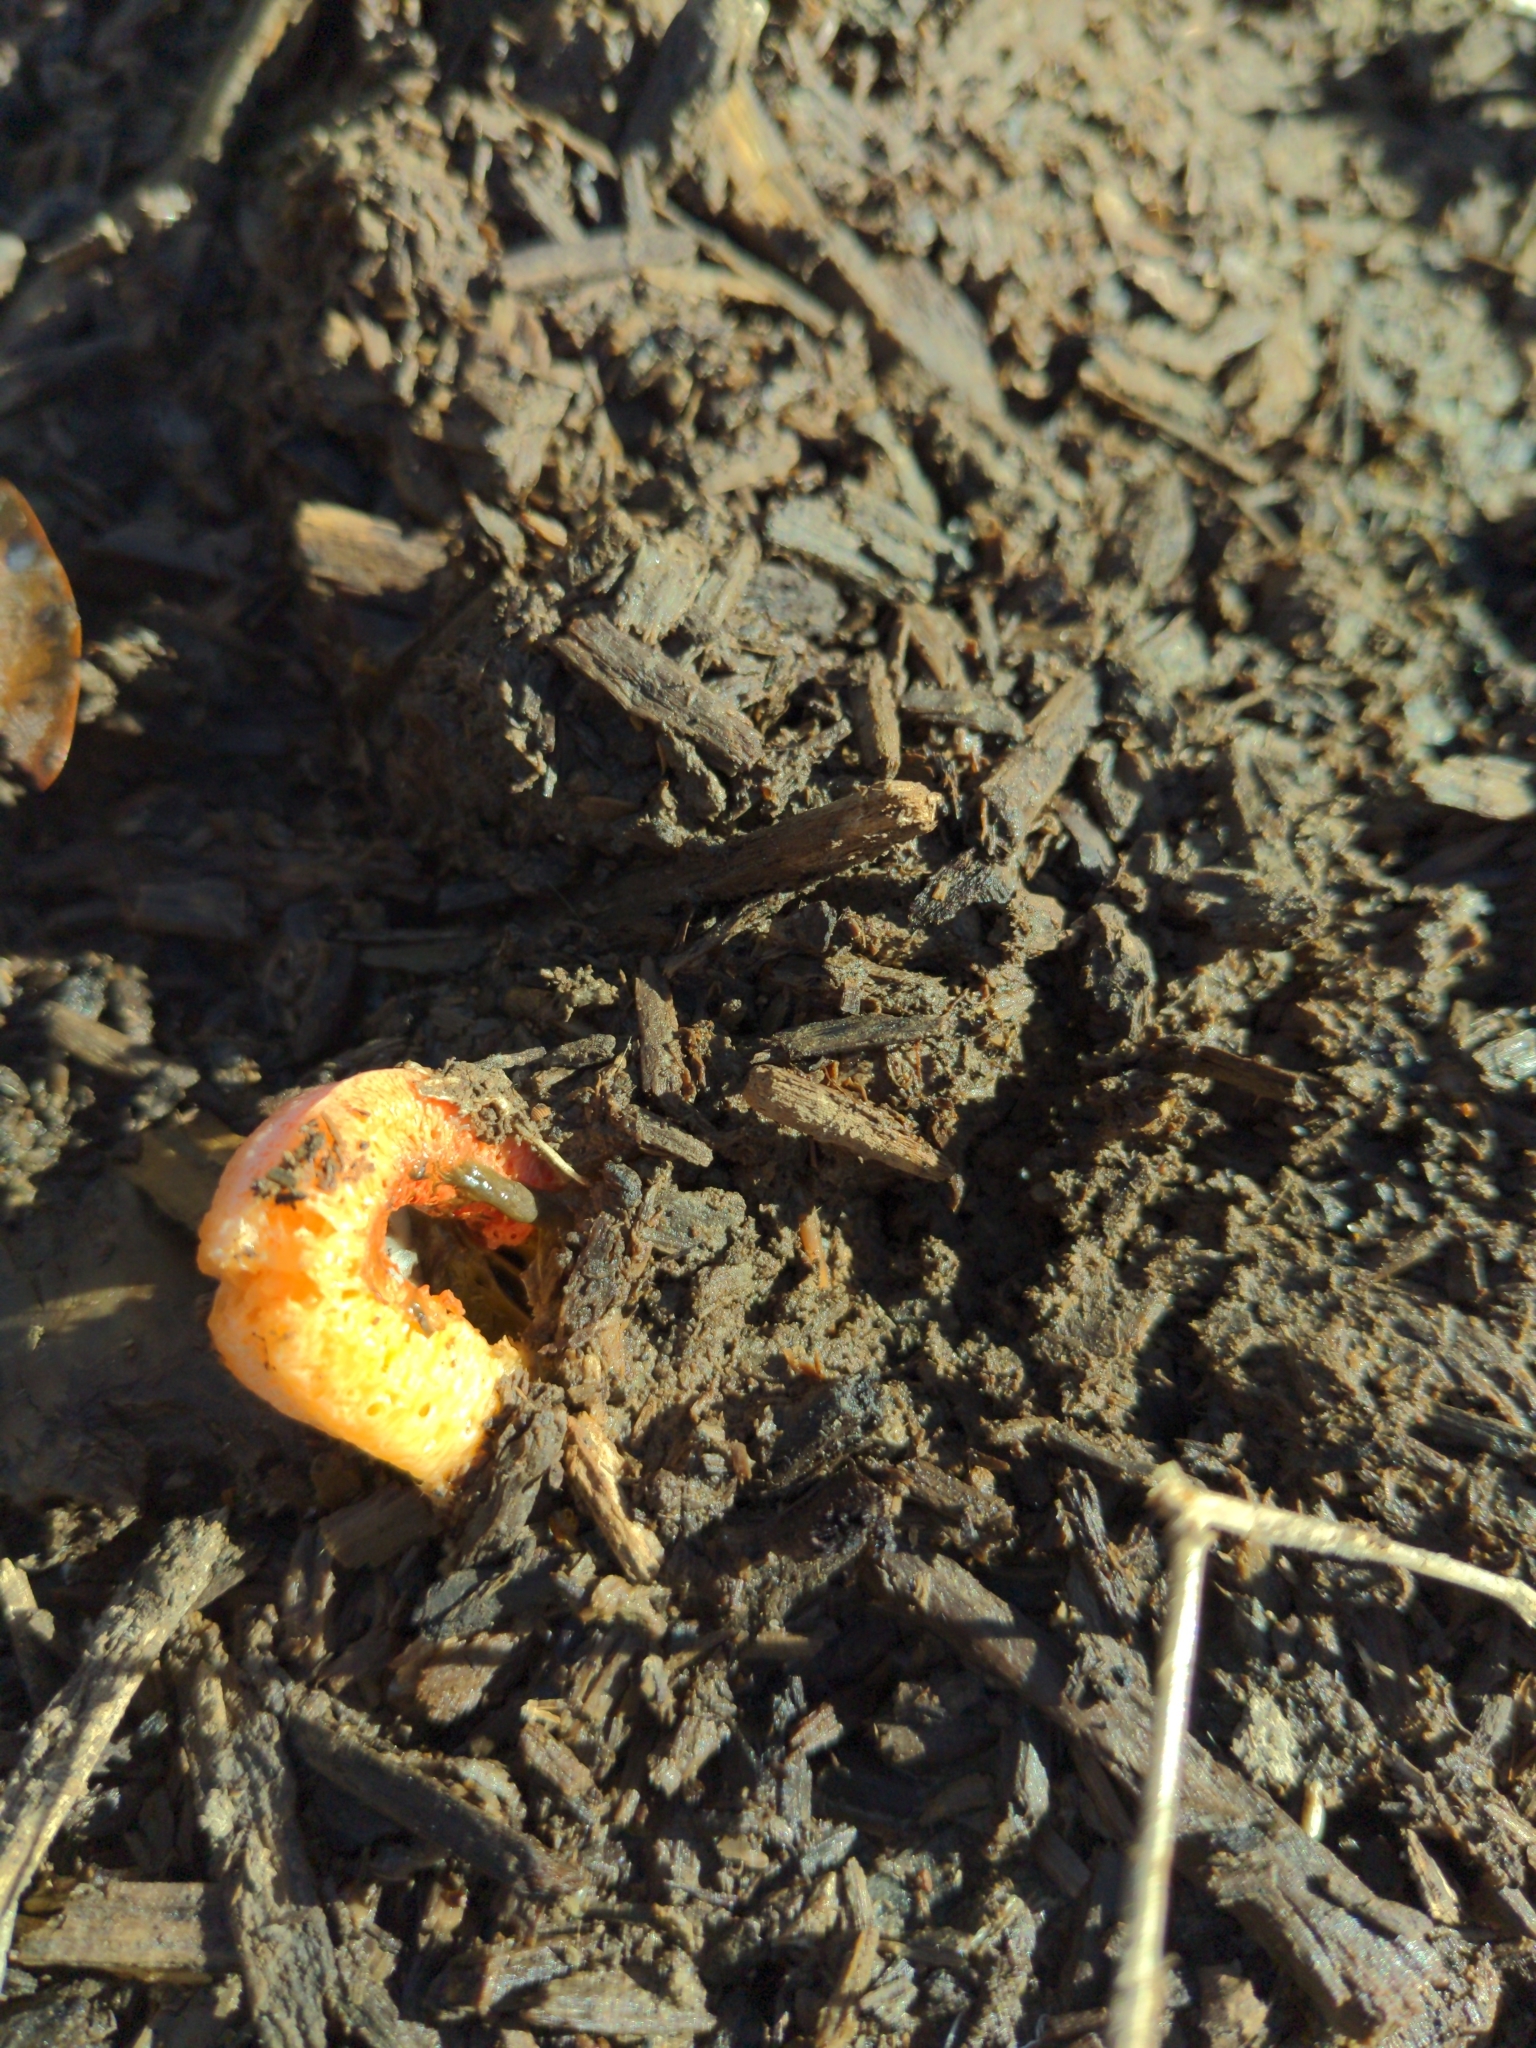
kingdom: Fungi
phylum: Basidiomycota
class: Agaricomycetes
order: Phallales
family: Phallaceae
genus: Clathrus
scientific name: Clathrus columnatus
